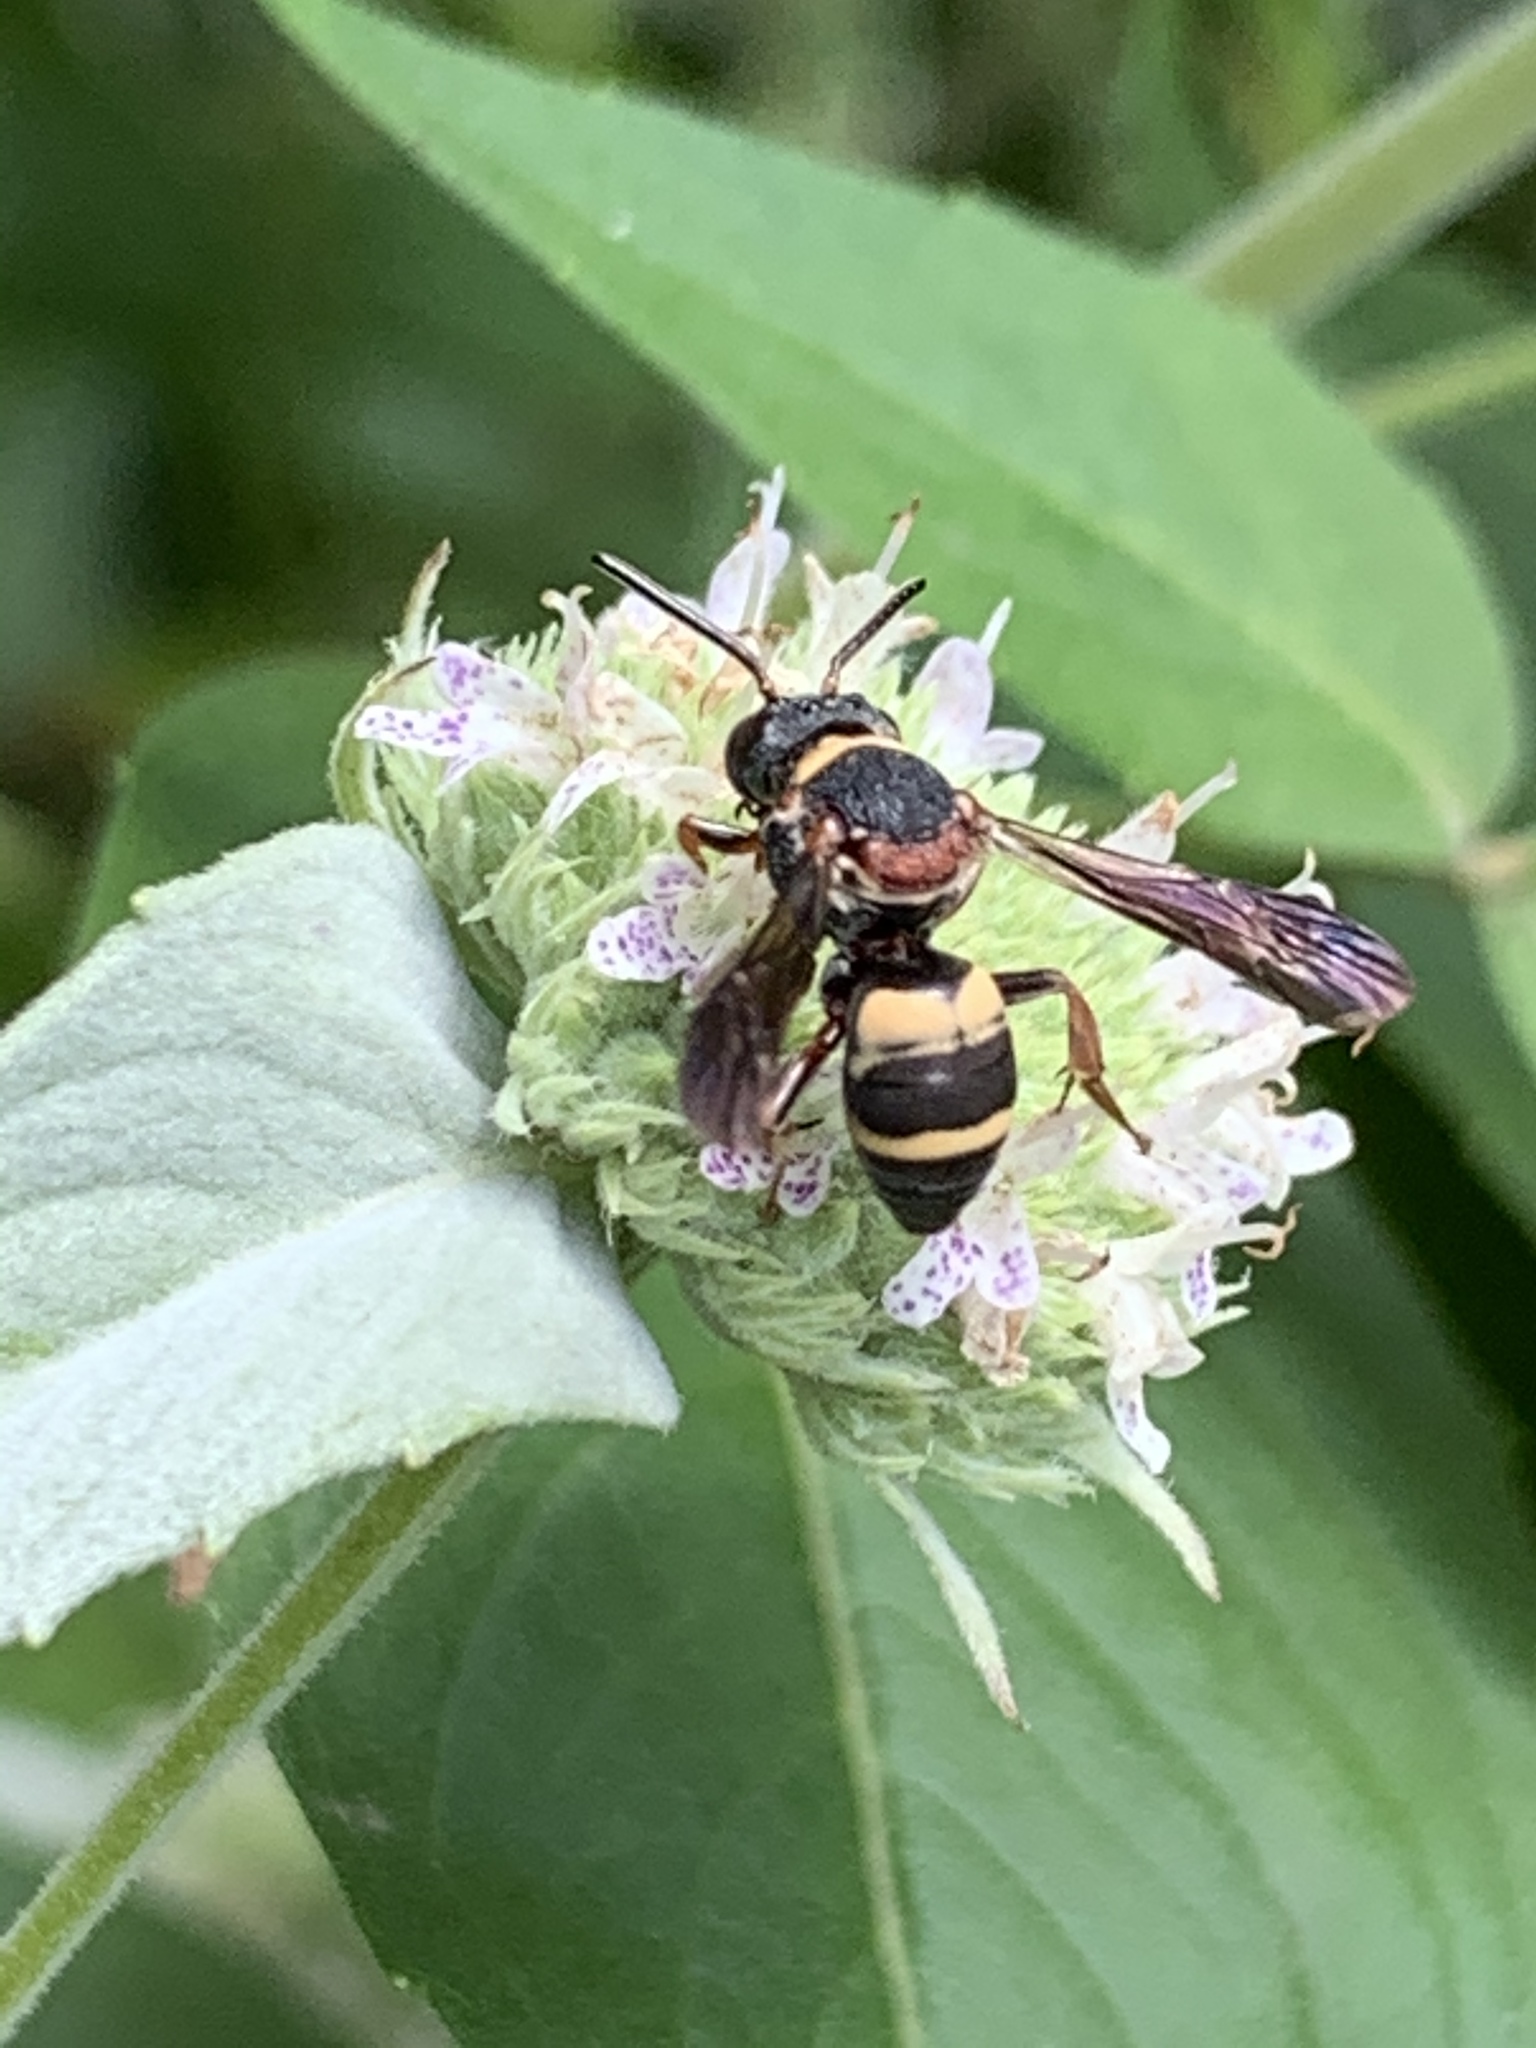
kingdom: Animalia
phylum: Arthropoda
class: Insecta
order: Hymenoptera
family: Apidae
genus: Epeolus
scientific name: Epeolus bifasciatus
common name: Two-banded cellophane-cuckoo
